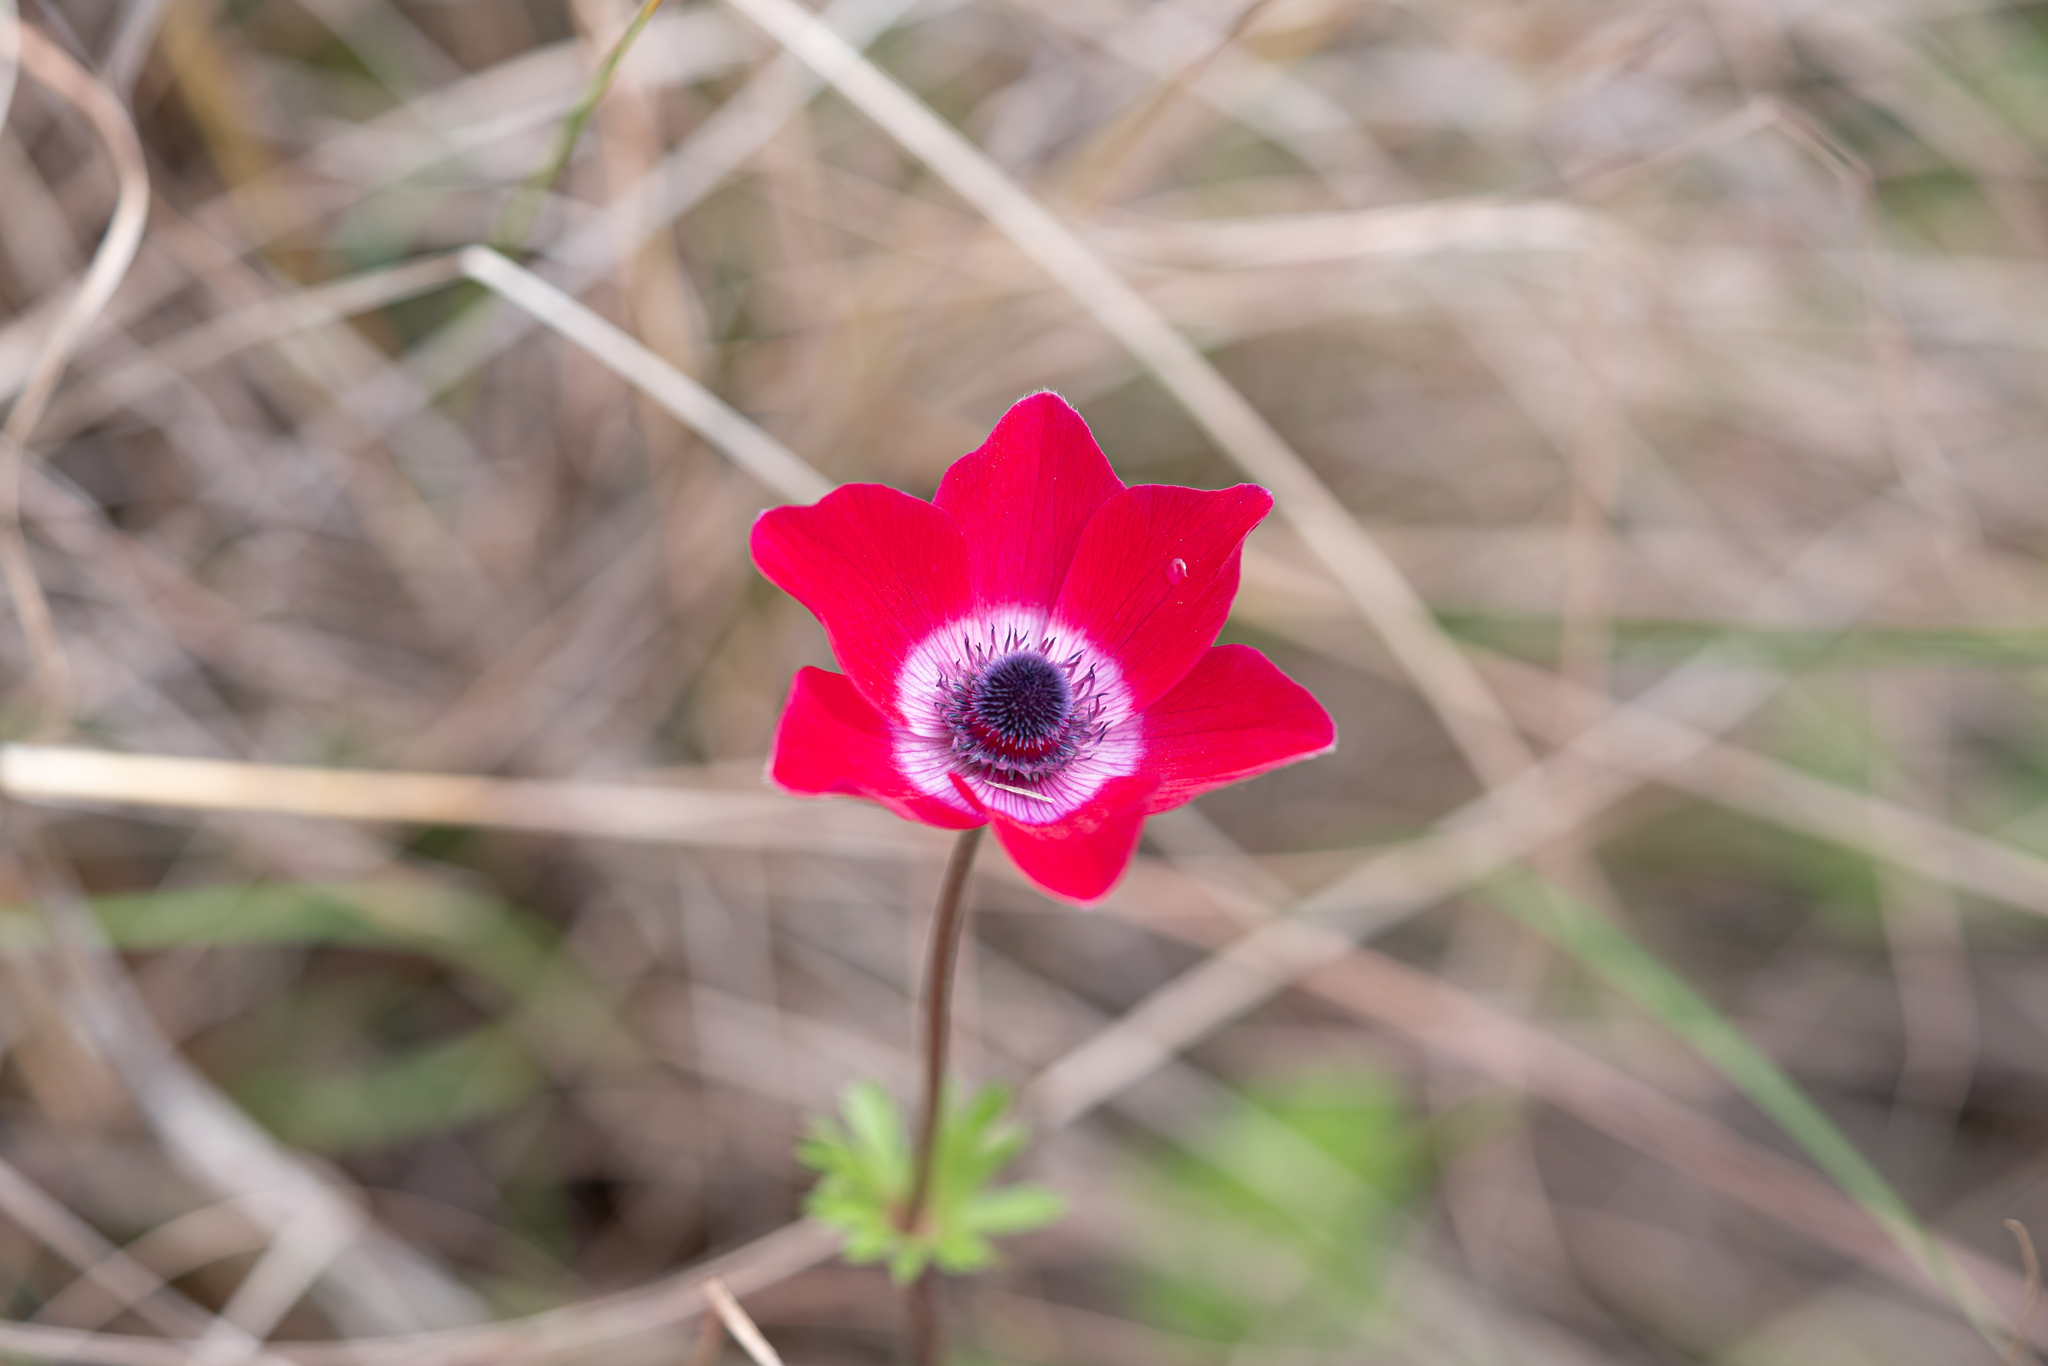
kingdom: Plantae
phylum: Tracheophyta
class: Magnoliopsida
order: Ranunculales
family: Ranunculaceae
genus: Anemone
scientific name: Anemone coronaria
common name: Poppy anemone
